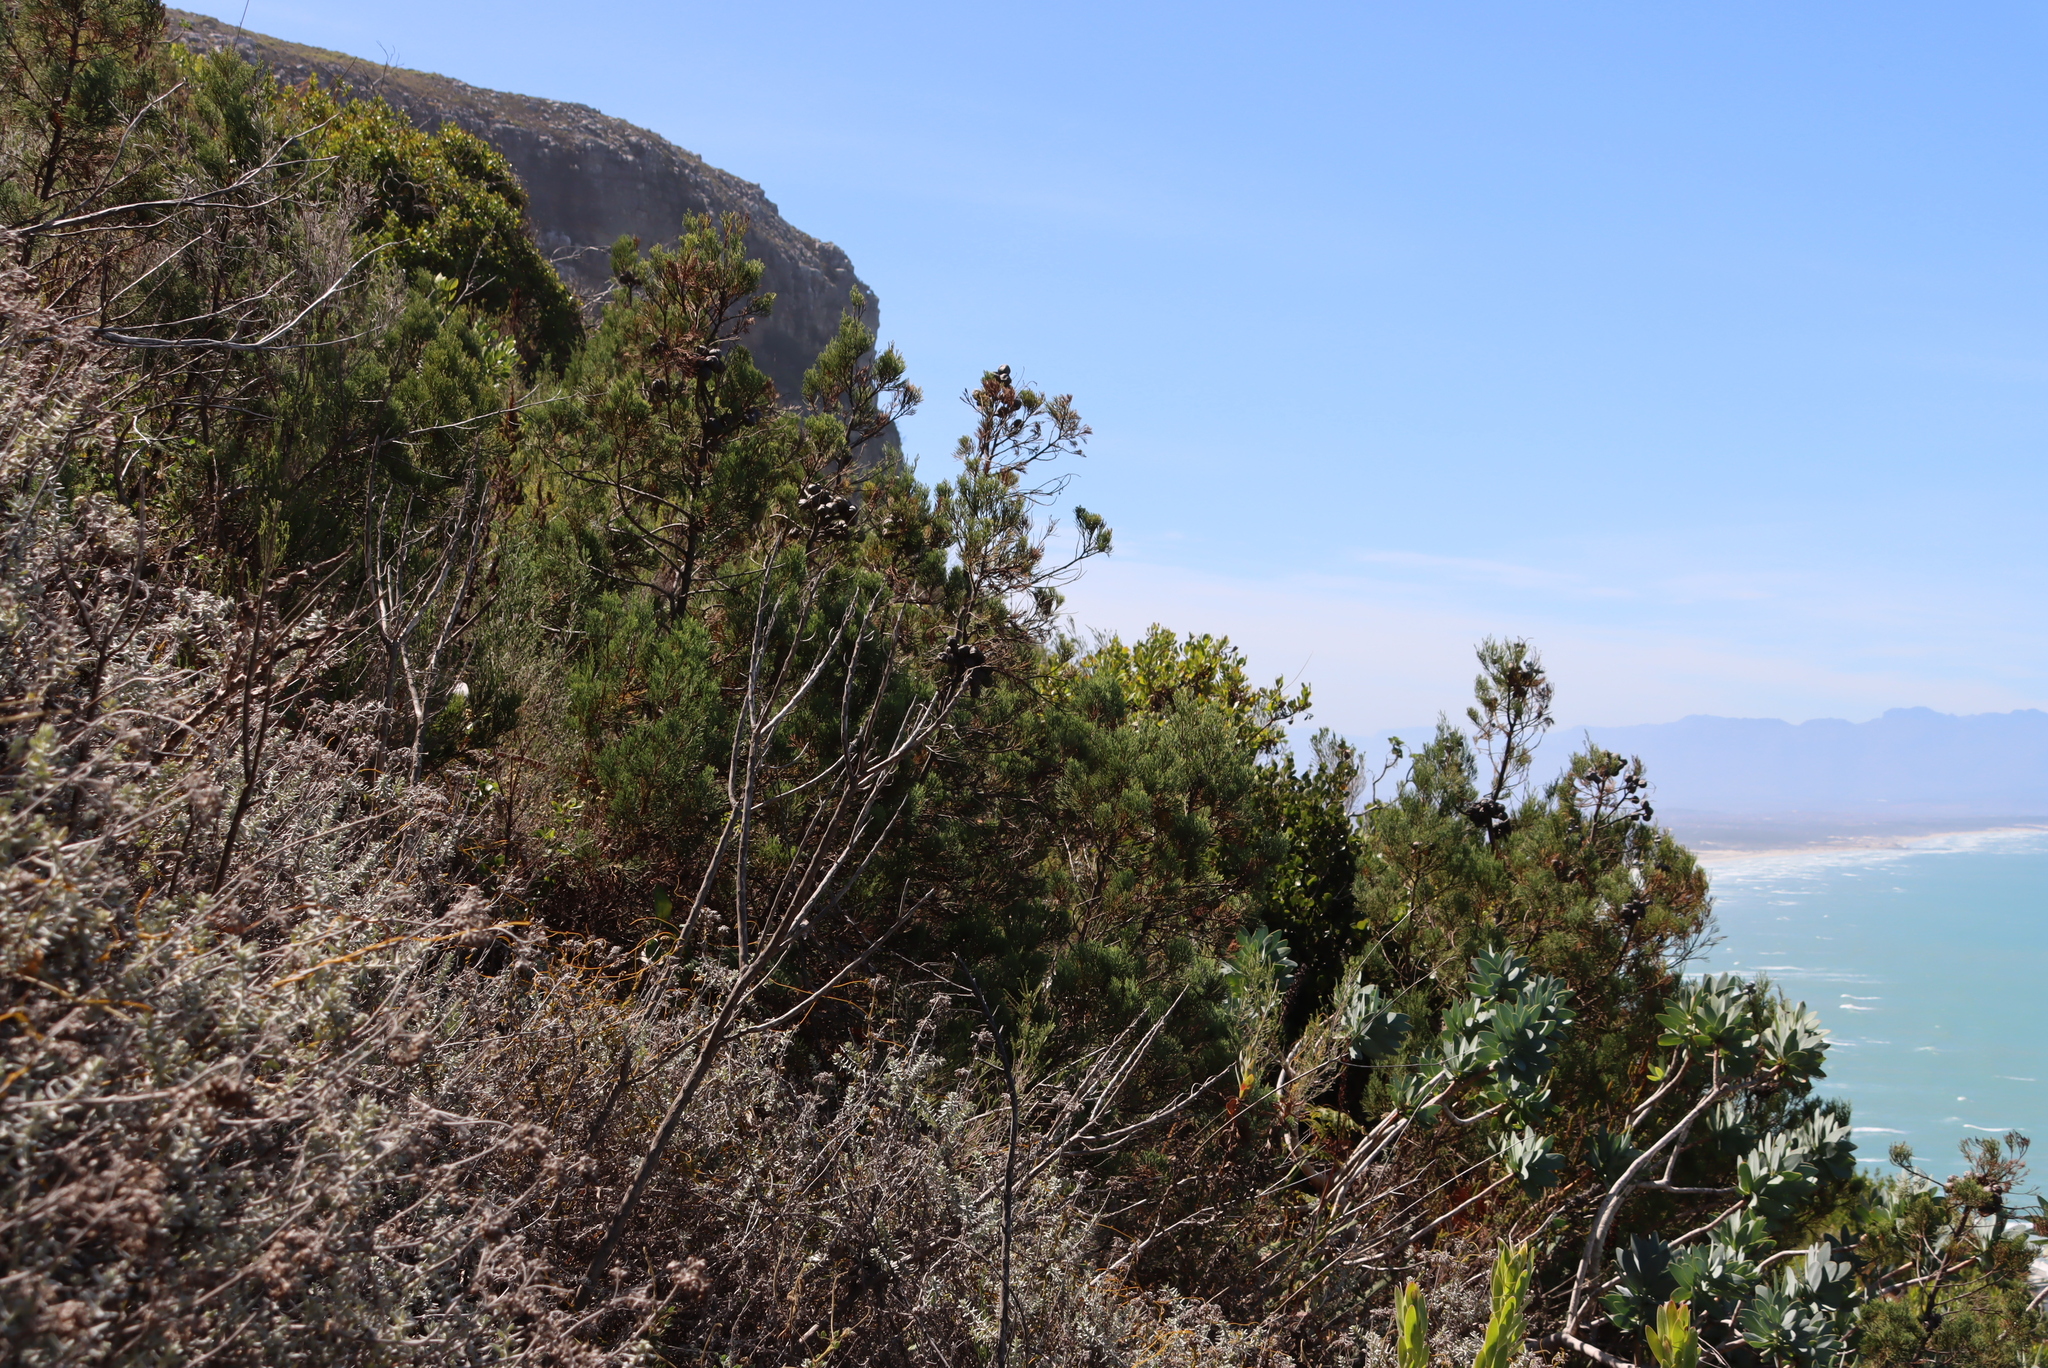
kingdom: Plantae
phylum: Tracheophyta
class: Pinopsida
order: Pinales
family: Cupressaceae
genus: Widdringtonia
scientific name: Widdringtonia nodiflora
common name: Cape cypress
